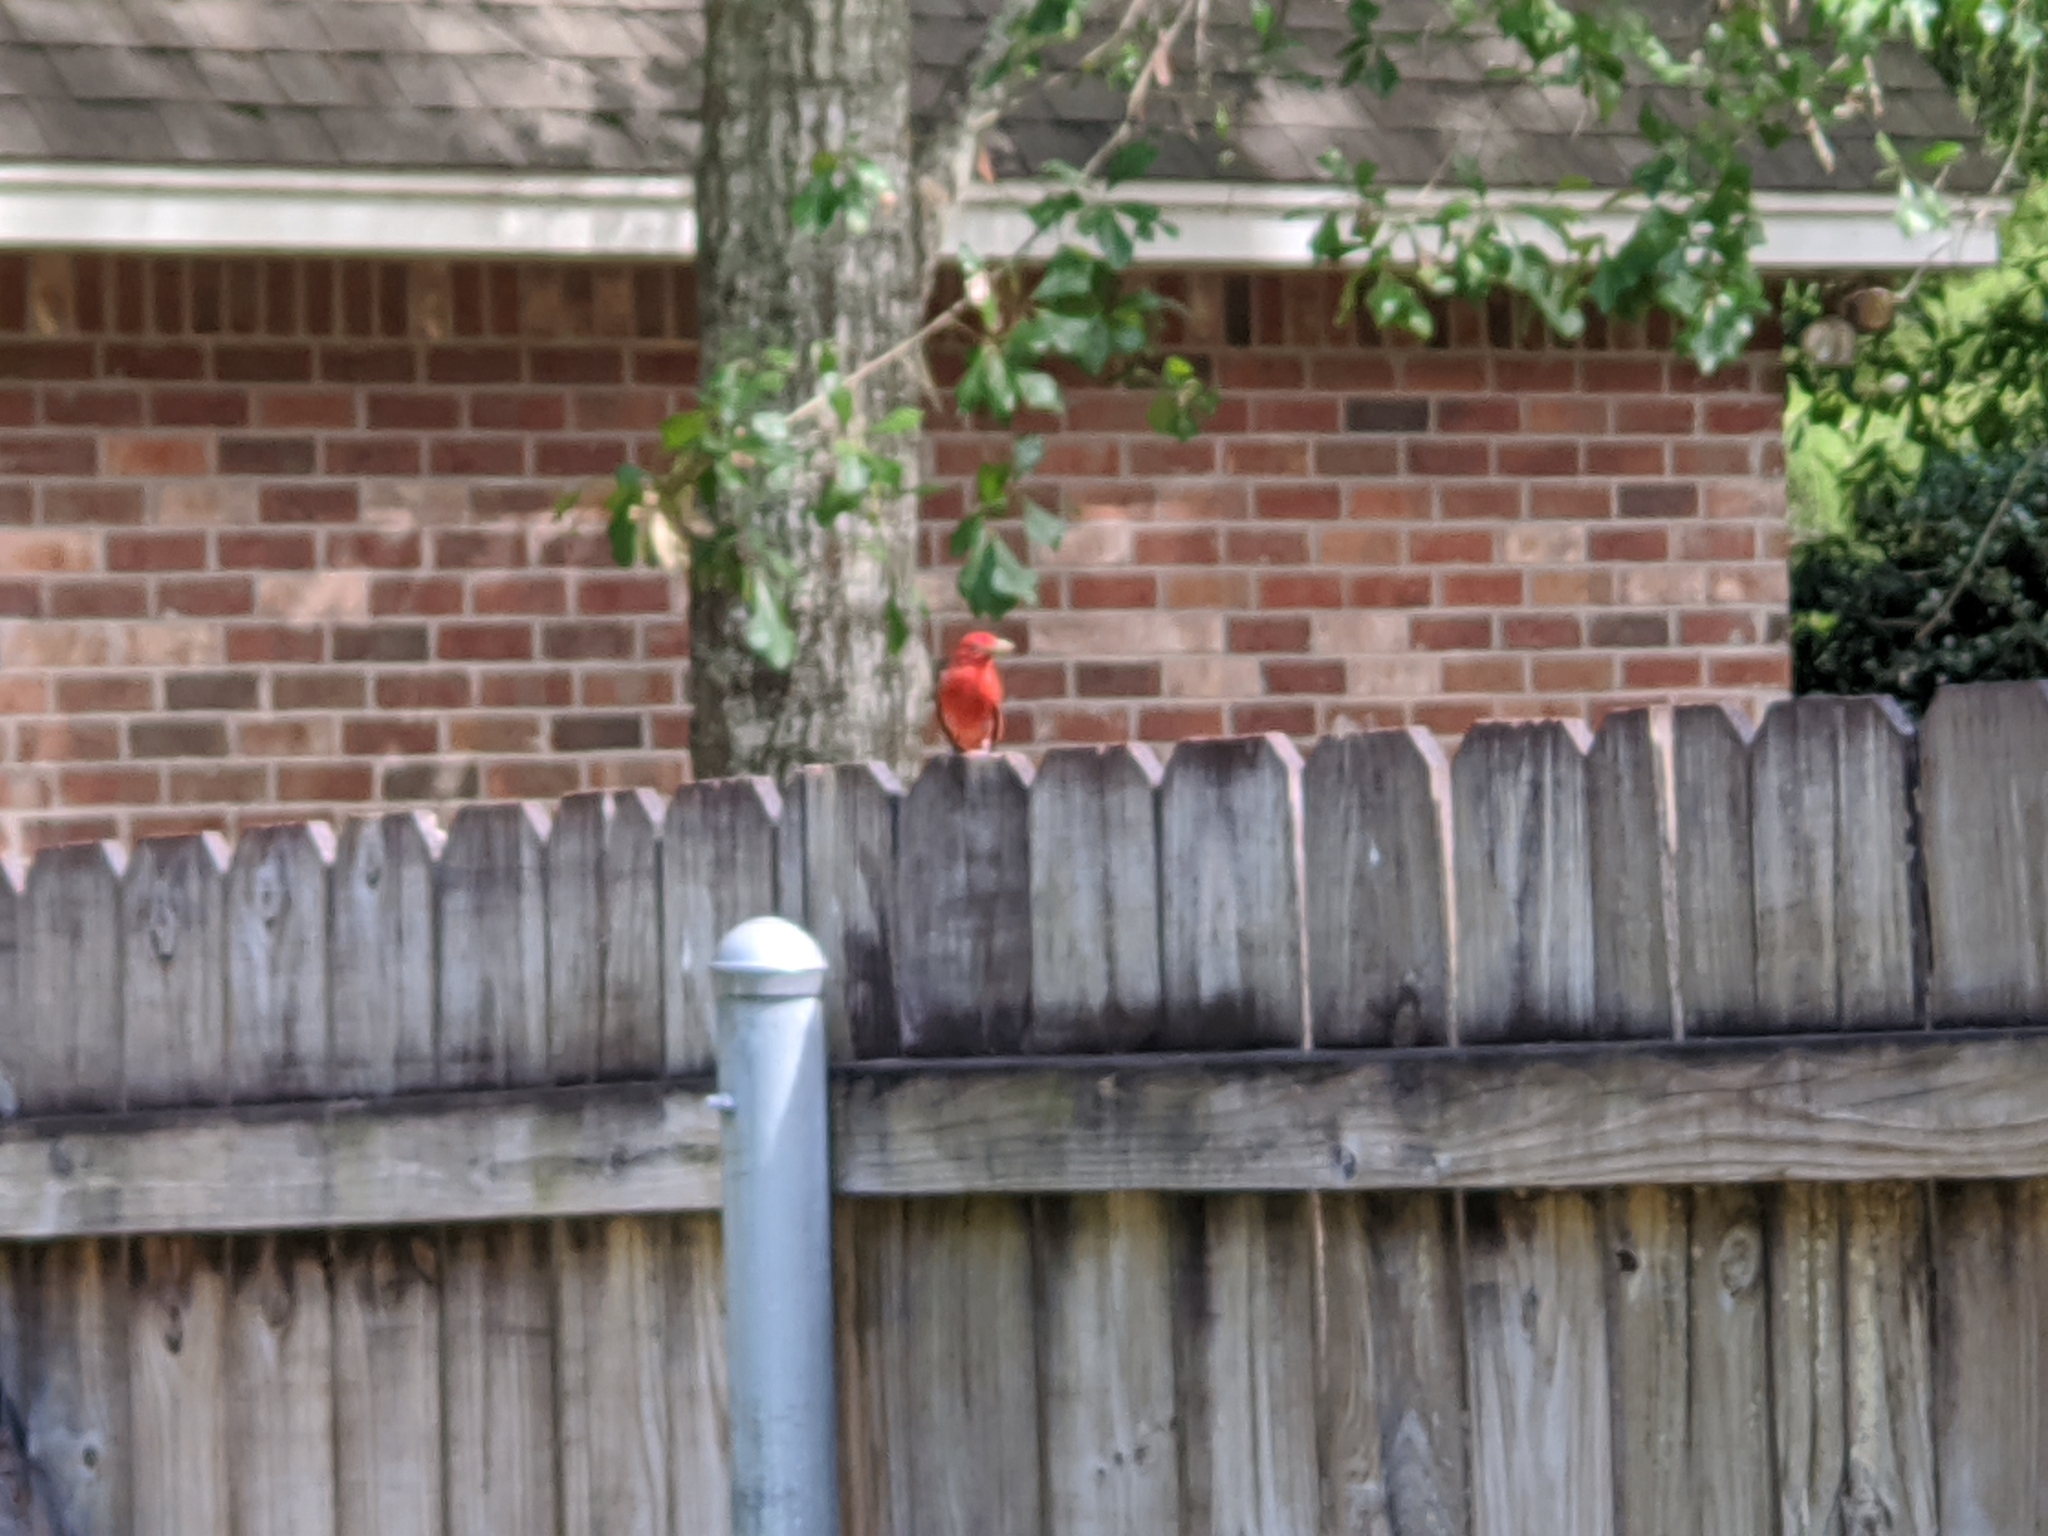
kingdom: Animalia
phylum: Chordata
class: Aves
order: Passeriformes
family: Cardinalidae
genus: Piranga
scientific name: Piranga rubra
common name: Summer tanager
